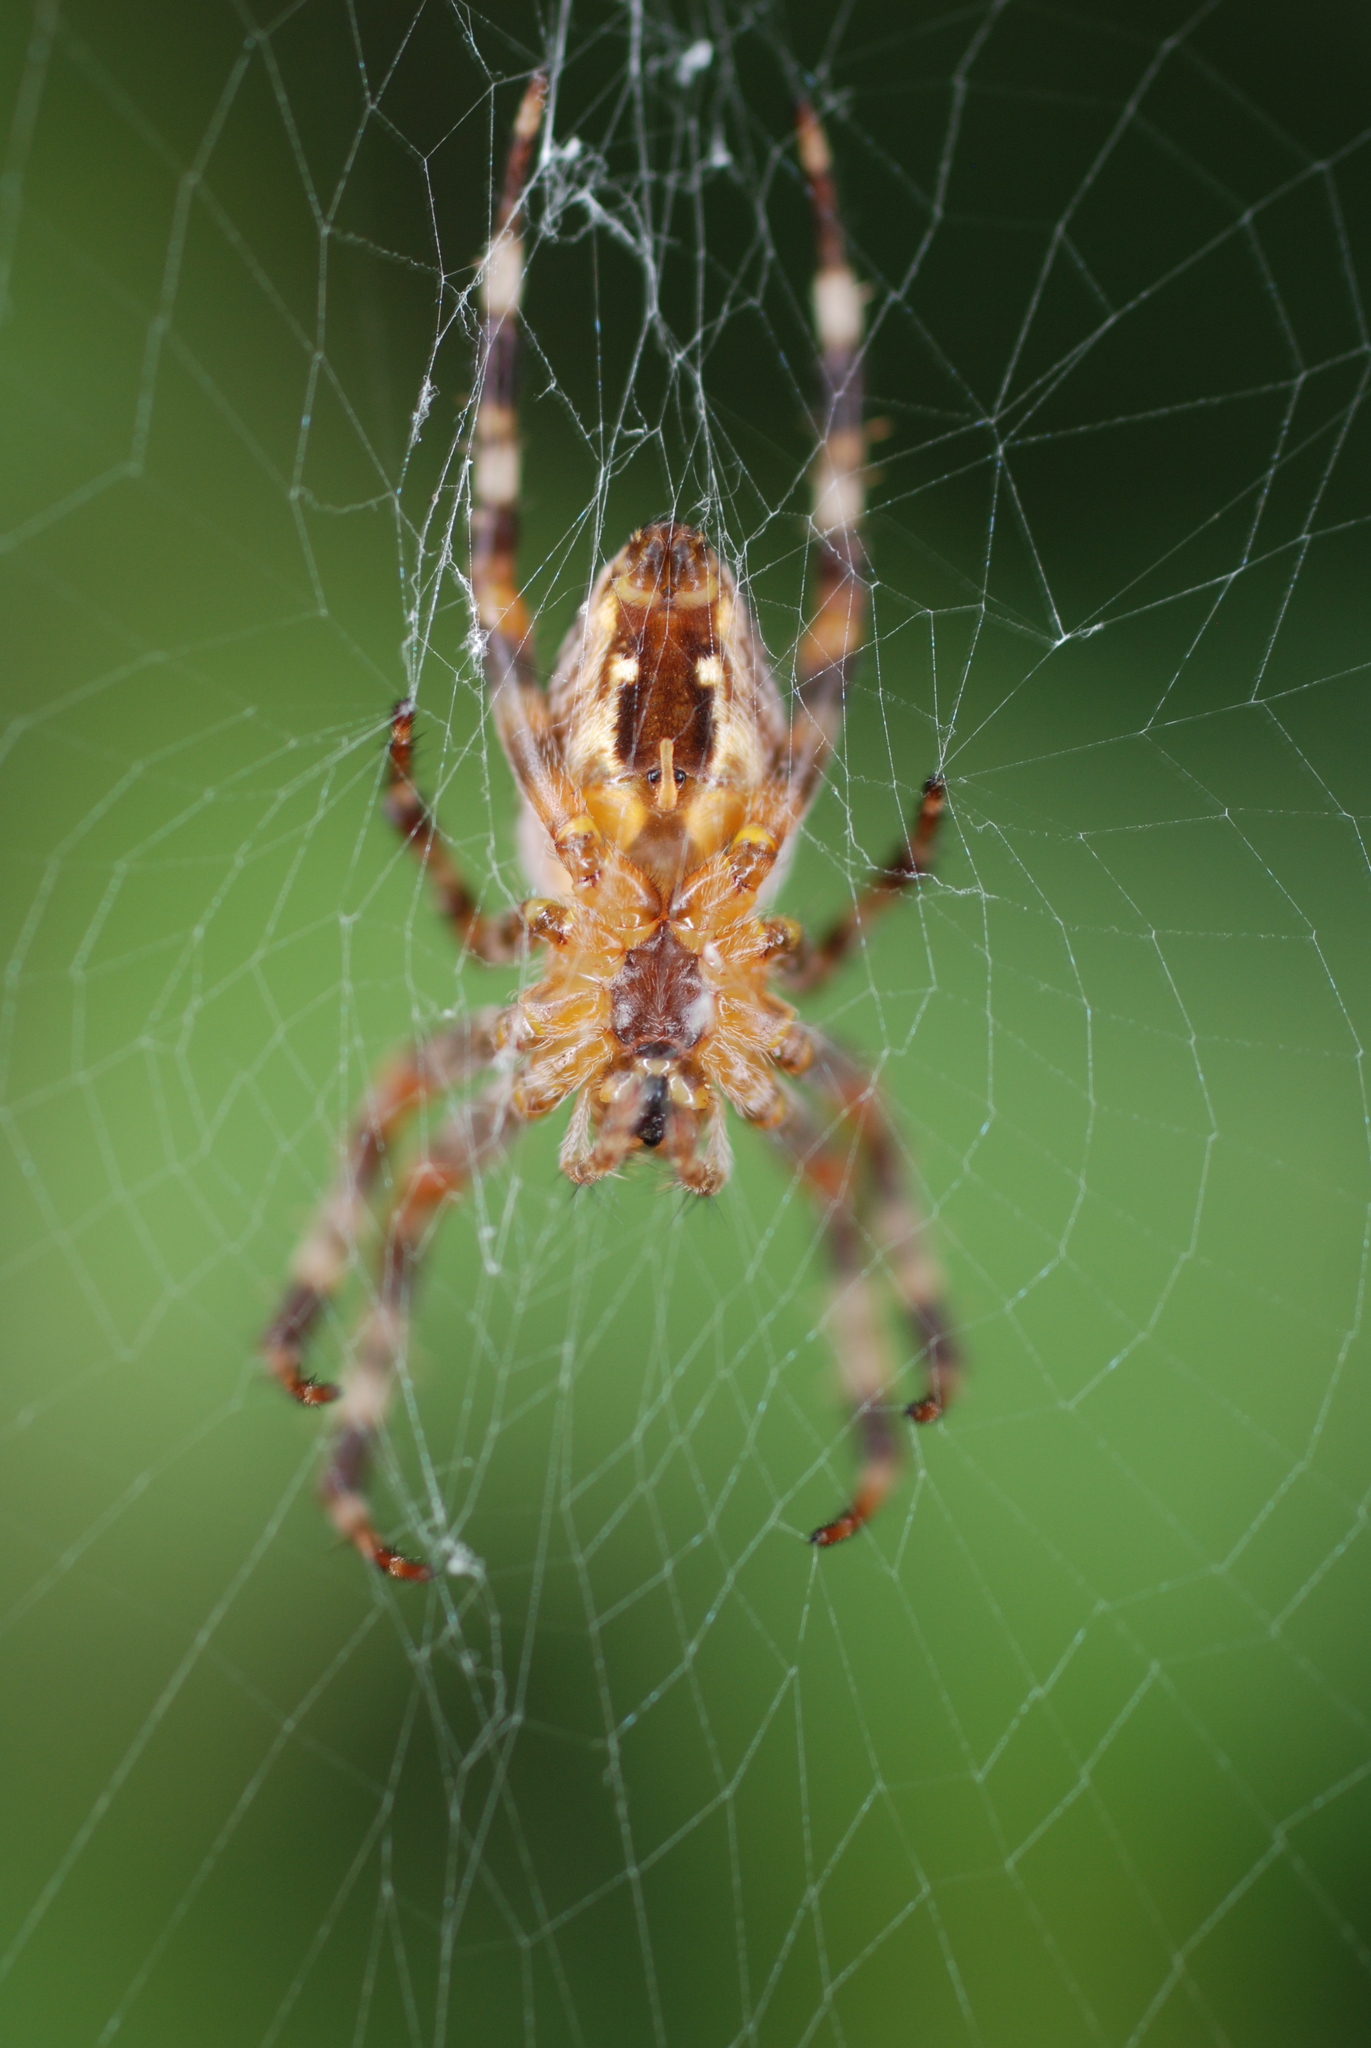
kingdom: Animalia
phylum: Arthropoda
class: Arachnida
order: Araneae
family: Araneidae
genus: Araneus
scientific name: Araneus diadematus
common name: Cross orbweaver
